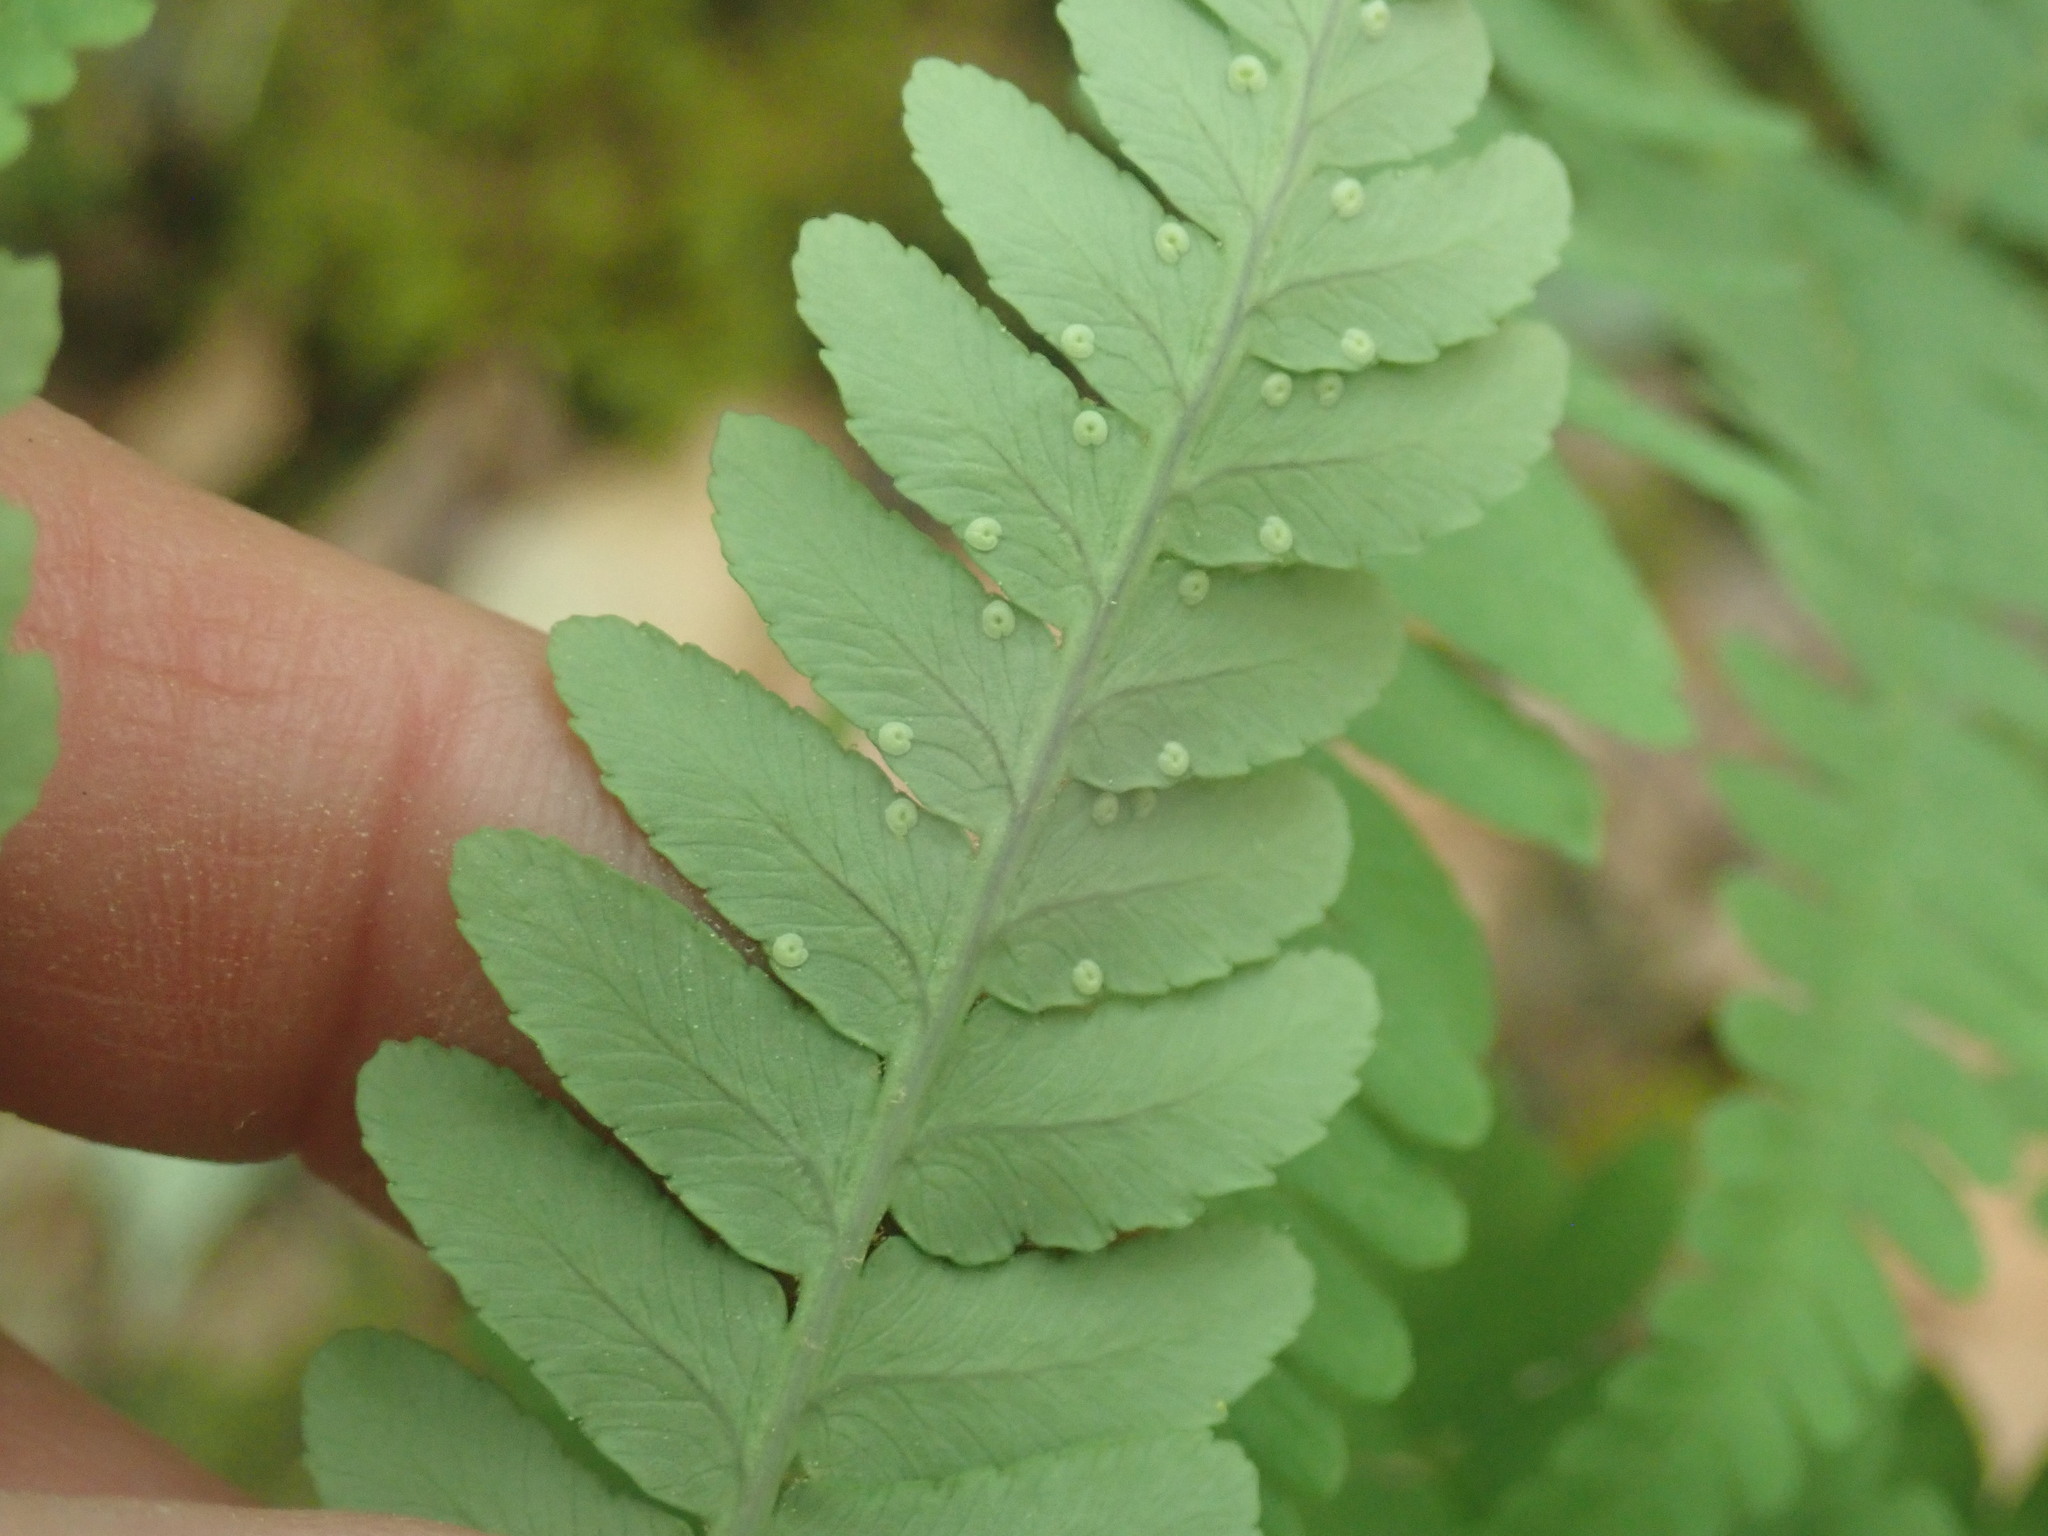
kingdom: Plantae
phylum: Tracheophyta
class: Polypodiopsida
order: Polypodiales
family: Dryopteridaceae
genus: Dryopteris
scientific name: Dryopteris marginalis
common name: Marginal wood fern
